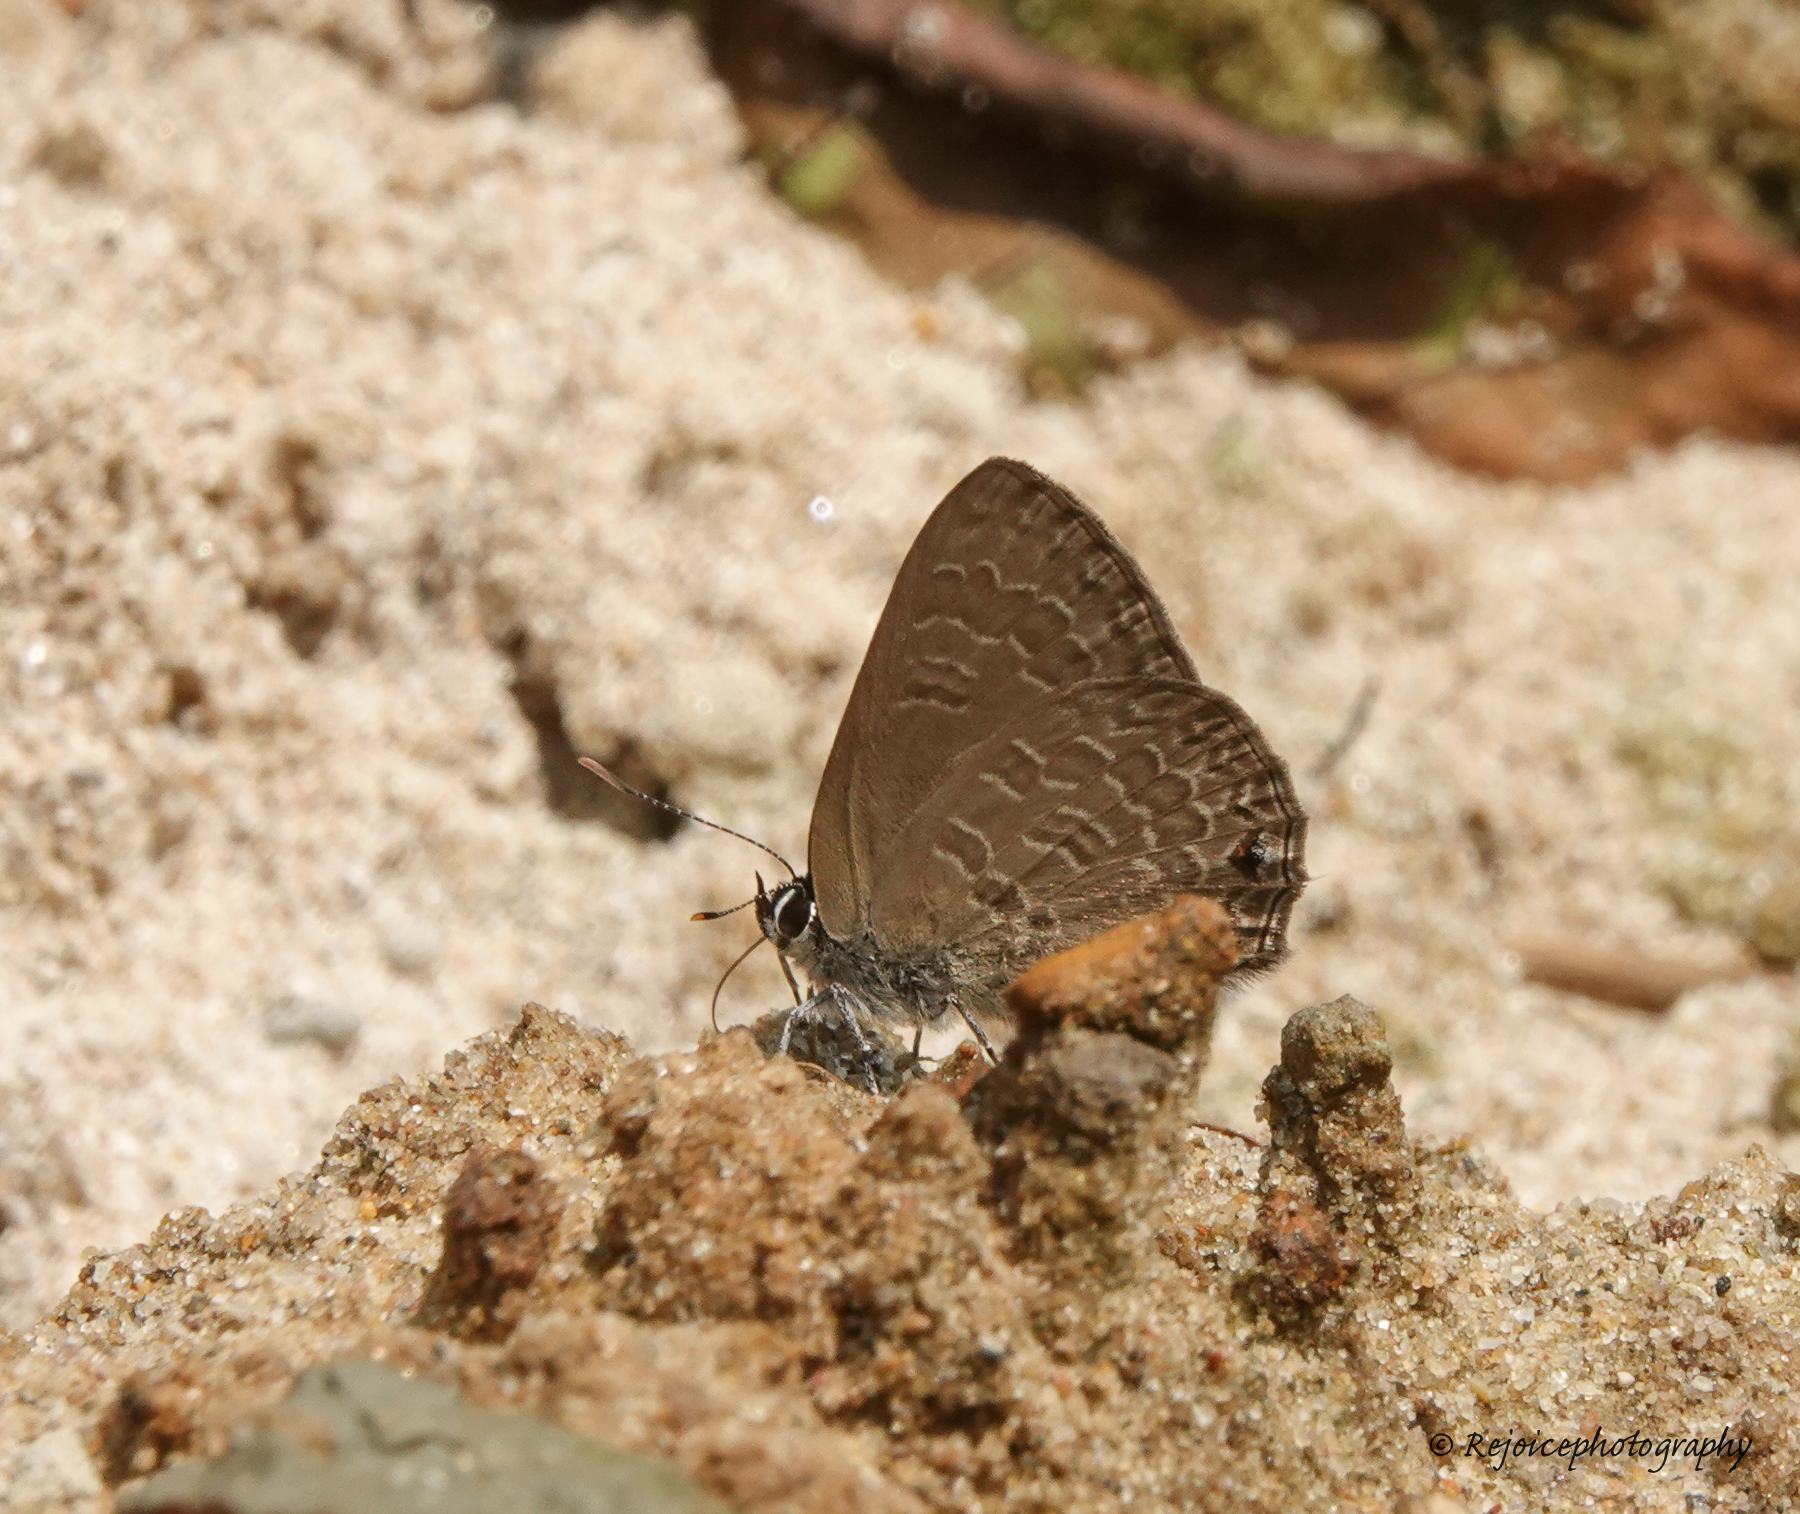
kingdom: Animalia
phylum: Arthropoda
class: Insecta
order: Lepidoptera
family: Lycaenidae
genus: Anthene
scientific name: Anthene emolus
